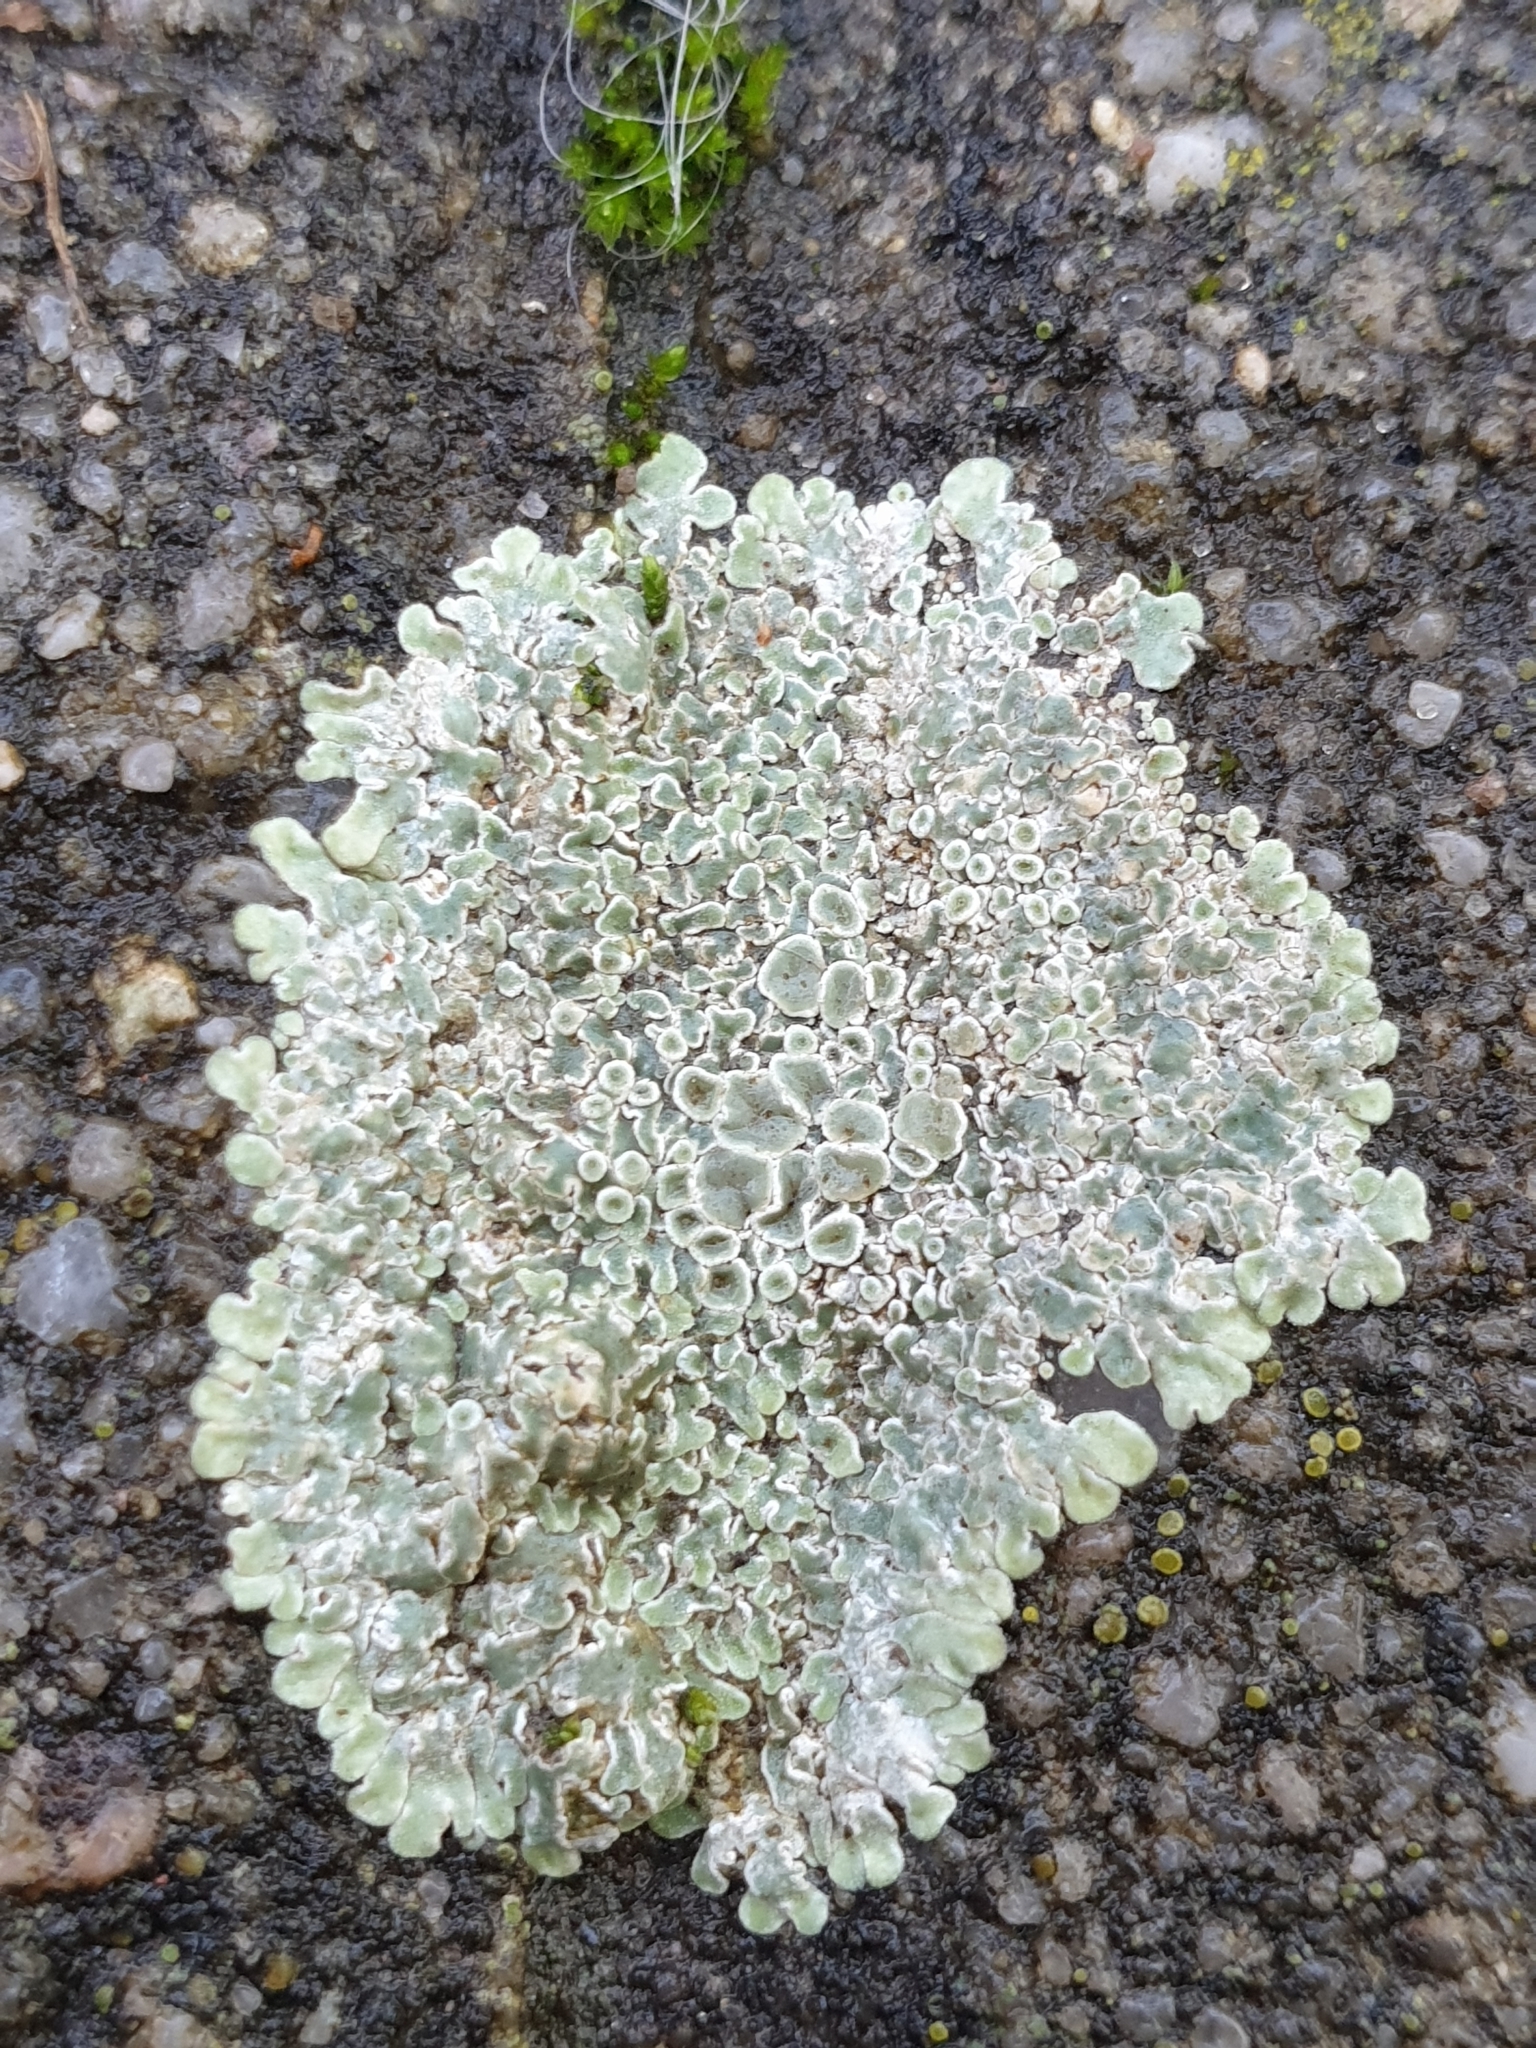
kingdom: Fungi
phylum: Ascomycota
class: Lecanoromycetes
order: Lecanorales
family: Lecanoraceae
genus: Protoparmeliopsis
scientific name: Protoparmeliopsis muralis
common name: Stonewall rim lichen
